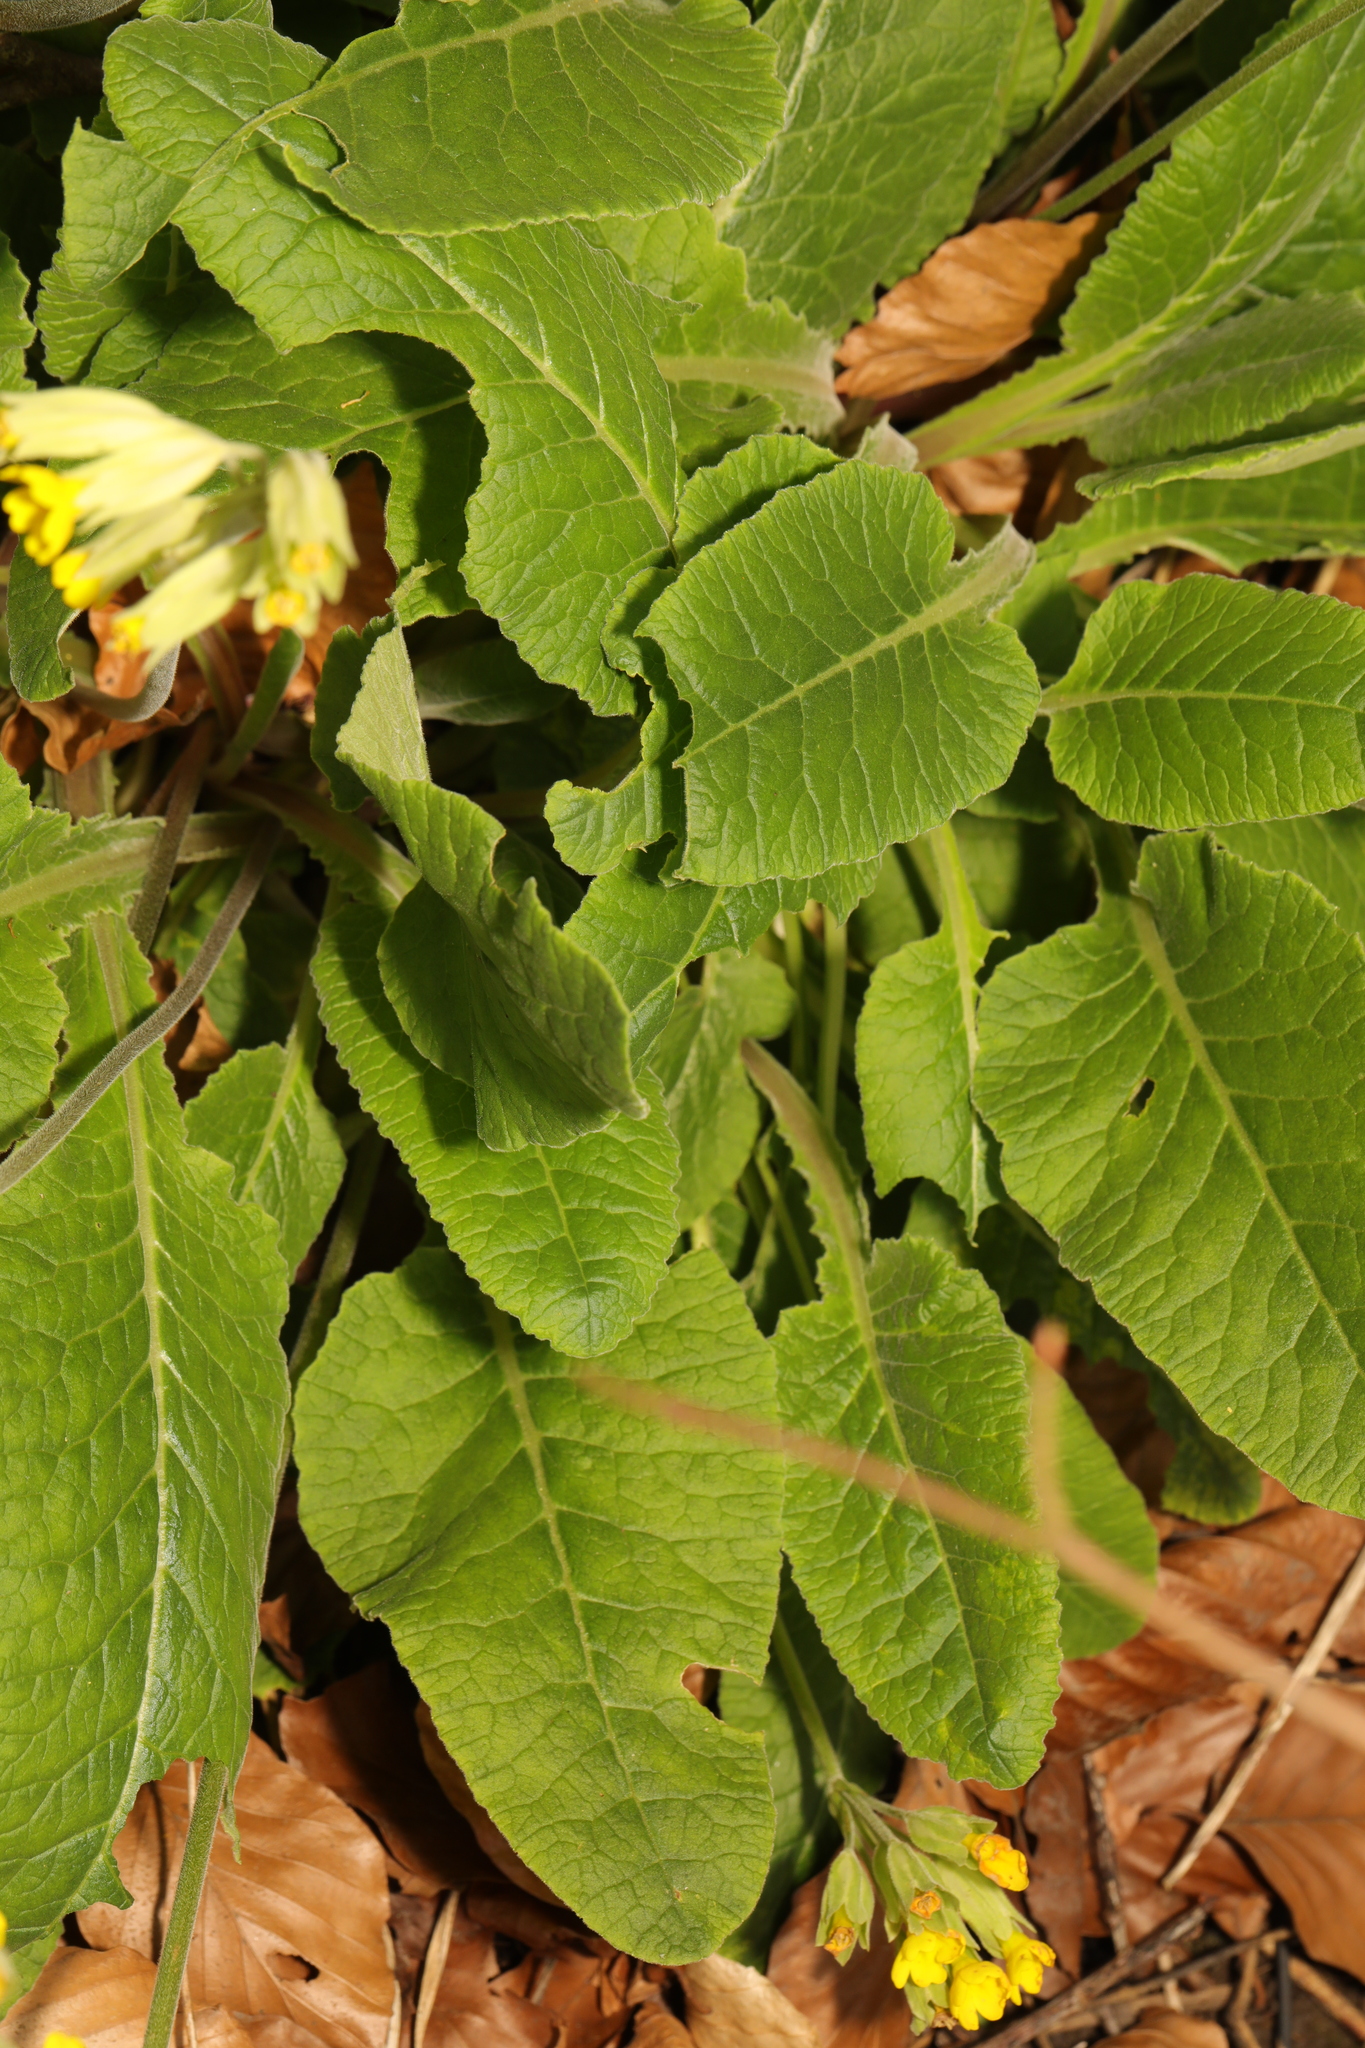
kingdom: Plantae
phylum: Tracheophyta
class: Magnoliopsida
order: Ericales
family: Primulaceae
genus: Primula
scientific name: Primula veris
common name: Cowslip
